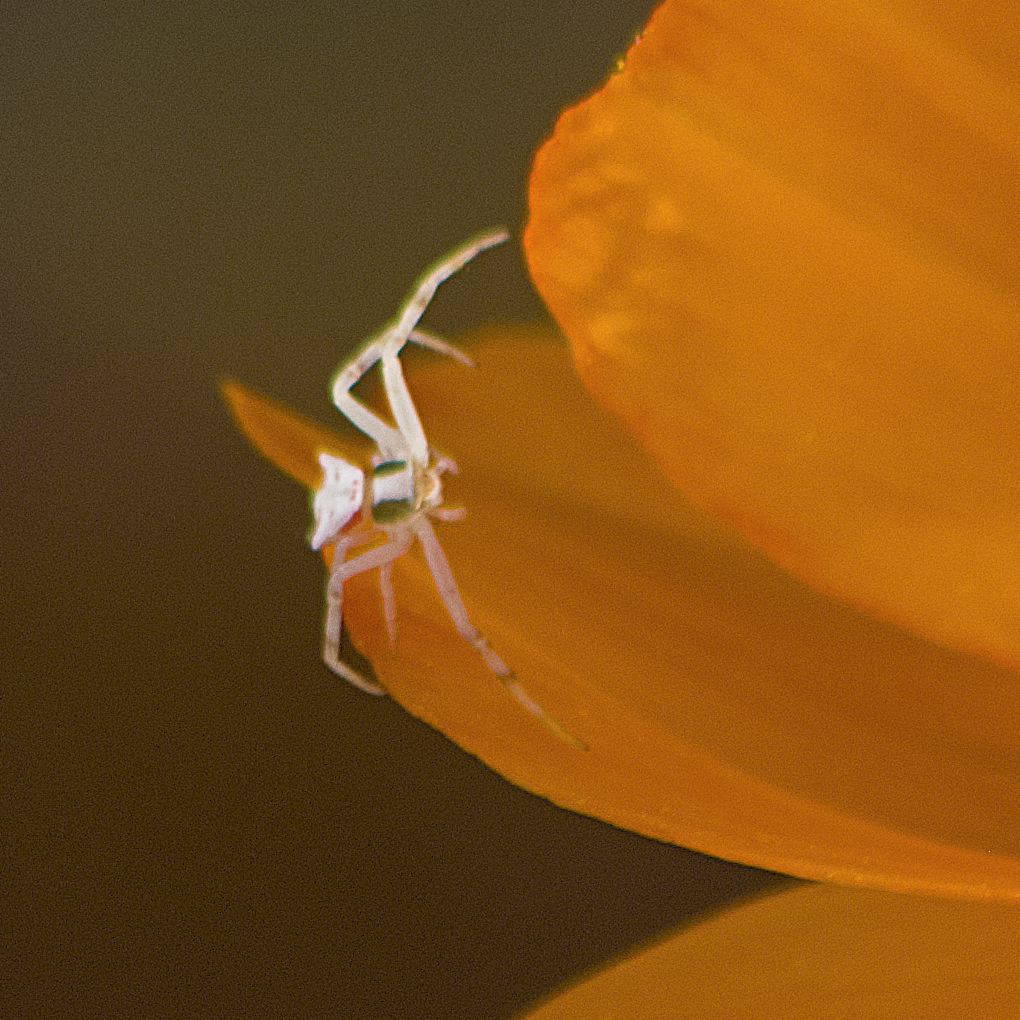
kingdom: Animalia
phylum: Arthropoda
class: Arachnida
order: Araneae
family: Thomisidae
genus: Thomisus
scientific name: Thomisus onustus
